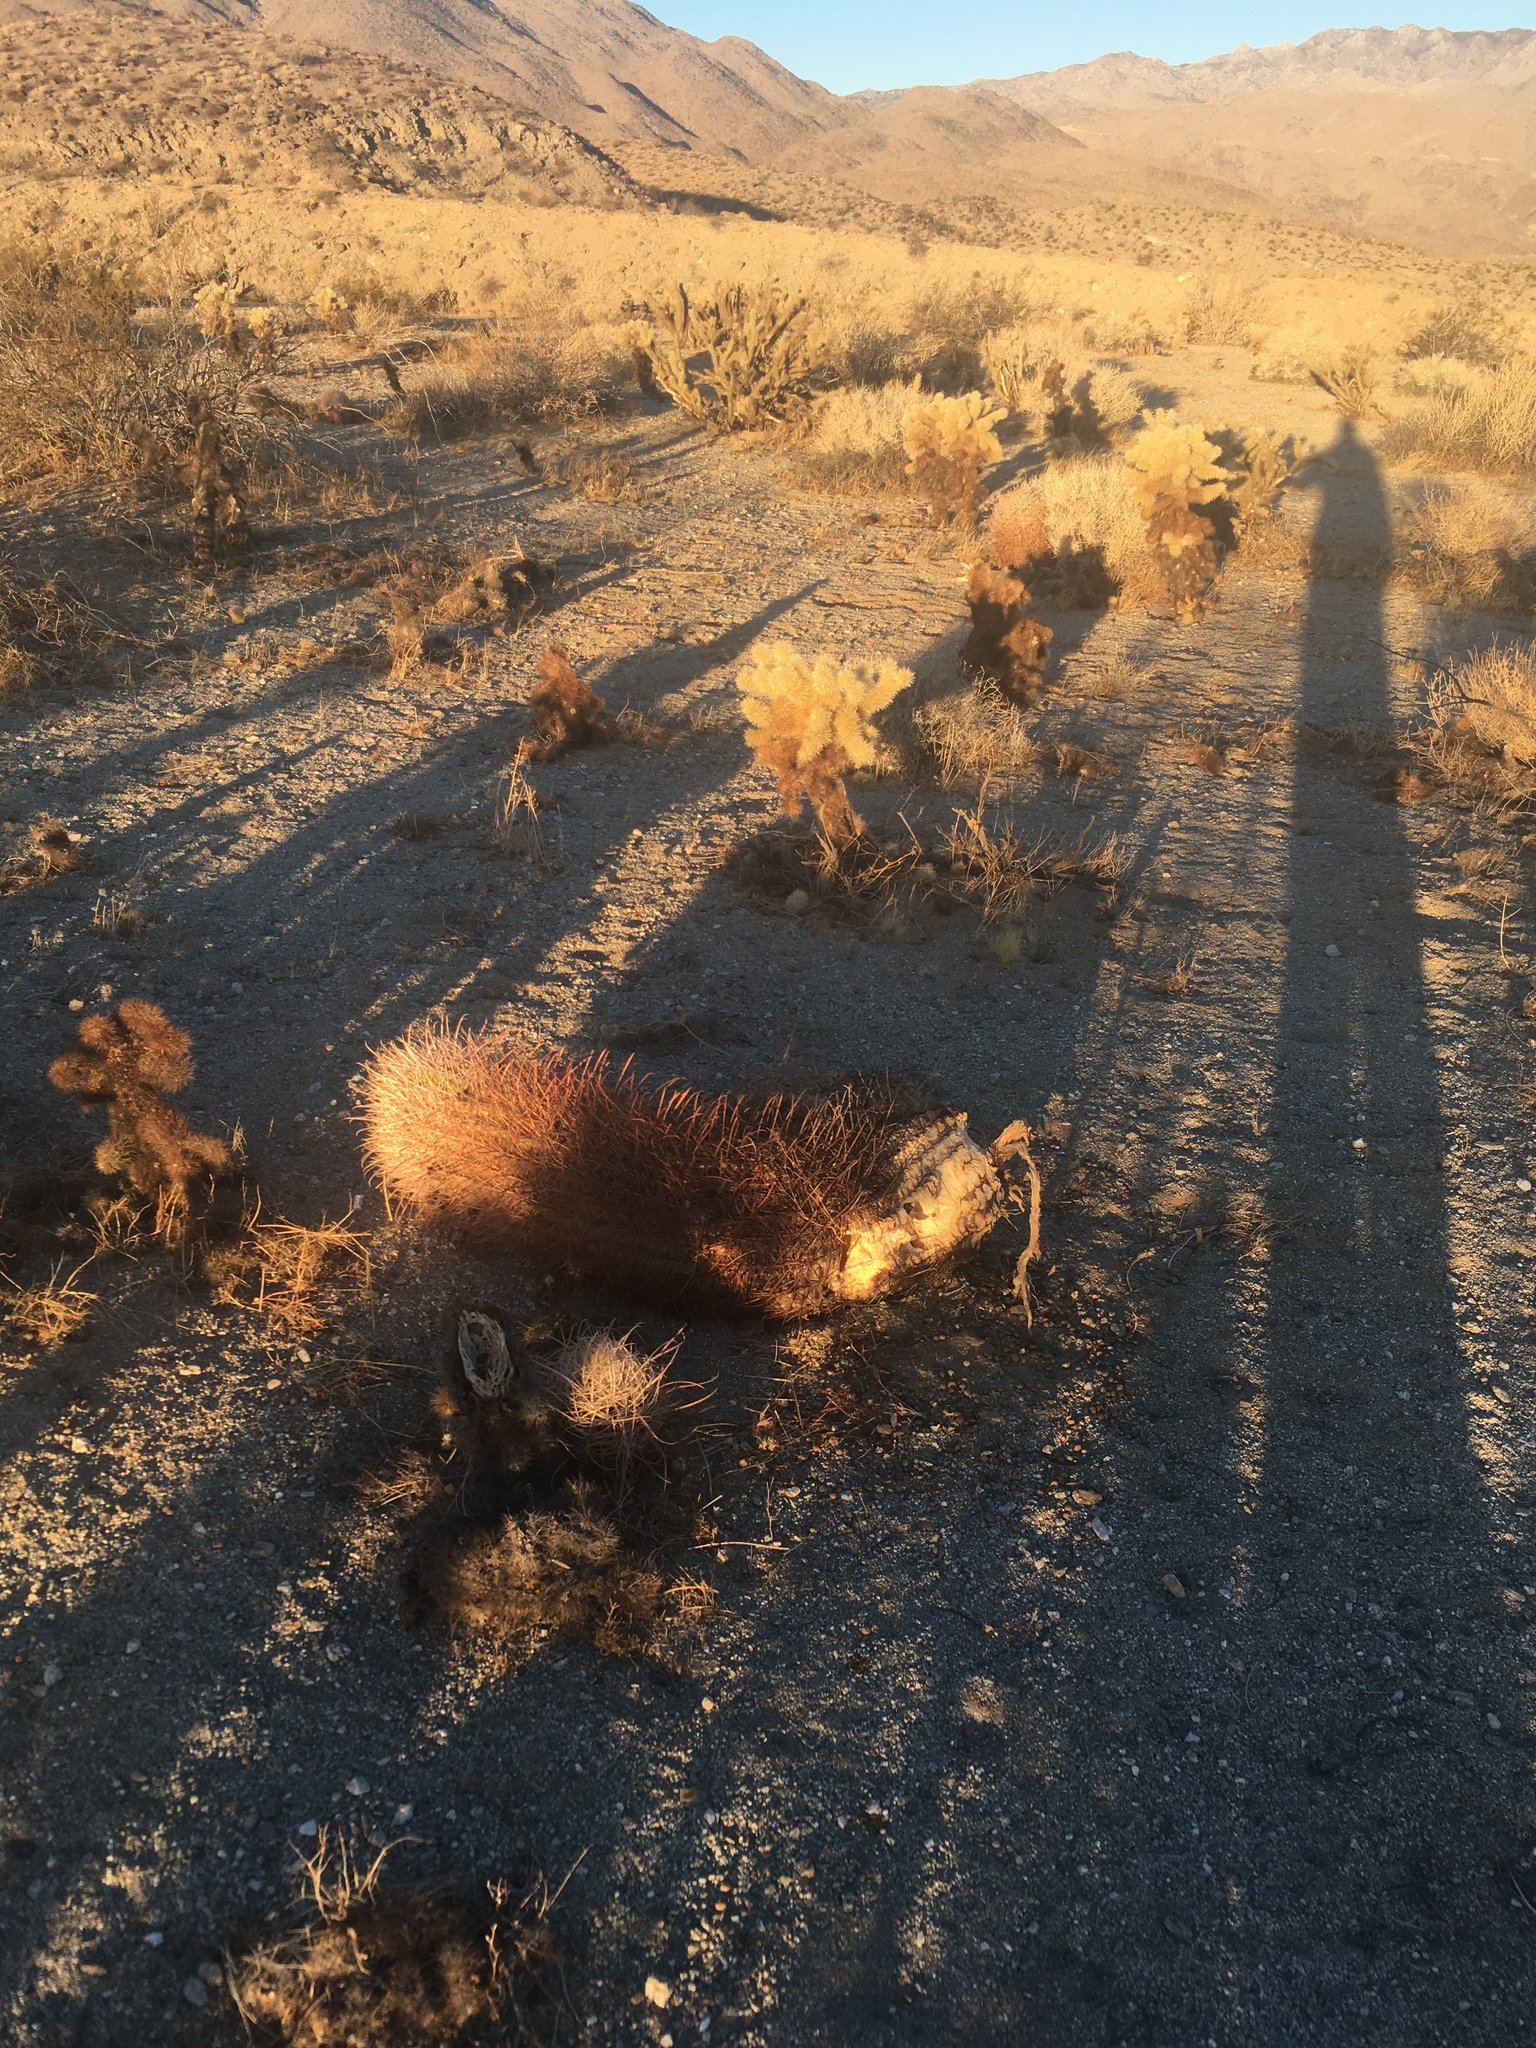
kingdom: Plantae
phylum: Tracheophyta
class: Magnoliopsida
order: Caryophyllales
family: Cactaceae
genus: Ferocactus
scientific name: Ferocactus cylindraceus
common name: California barrel cactus
